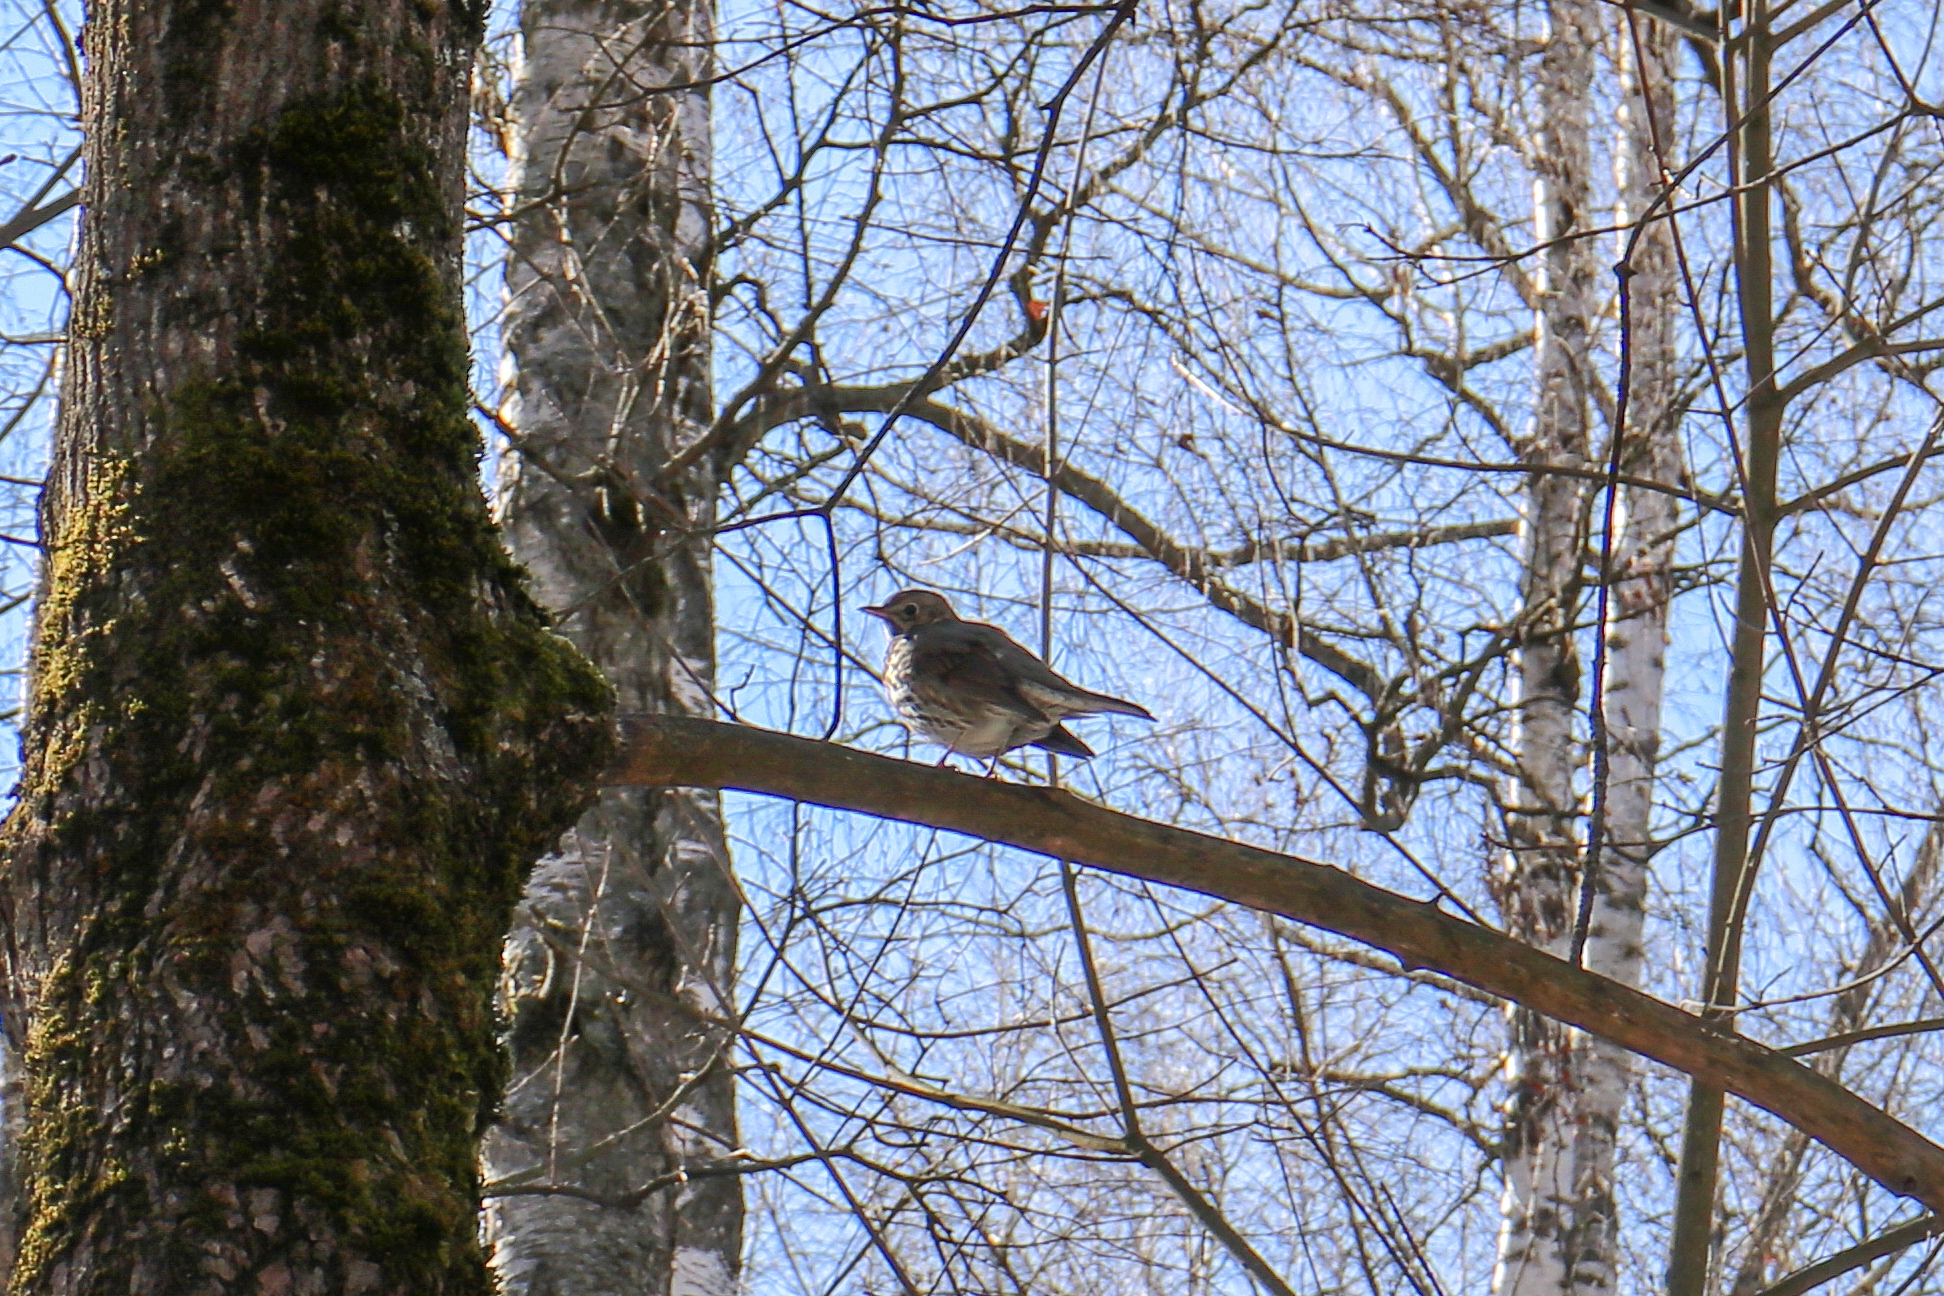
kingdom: Animalia
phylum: Chordata
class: Aves
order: Passeriformes
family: Turdidae
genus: Turdus
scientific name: Turdus philomelos
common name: Song thrush
